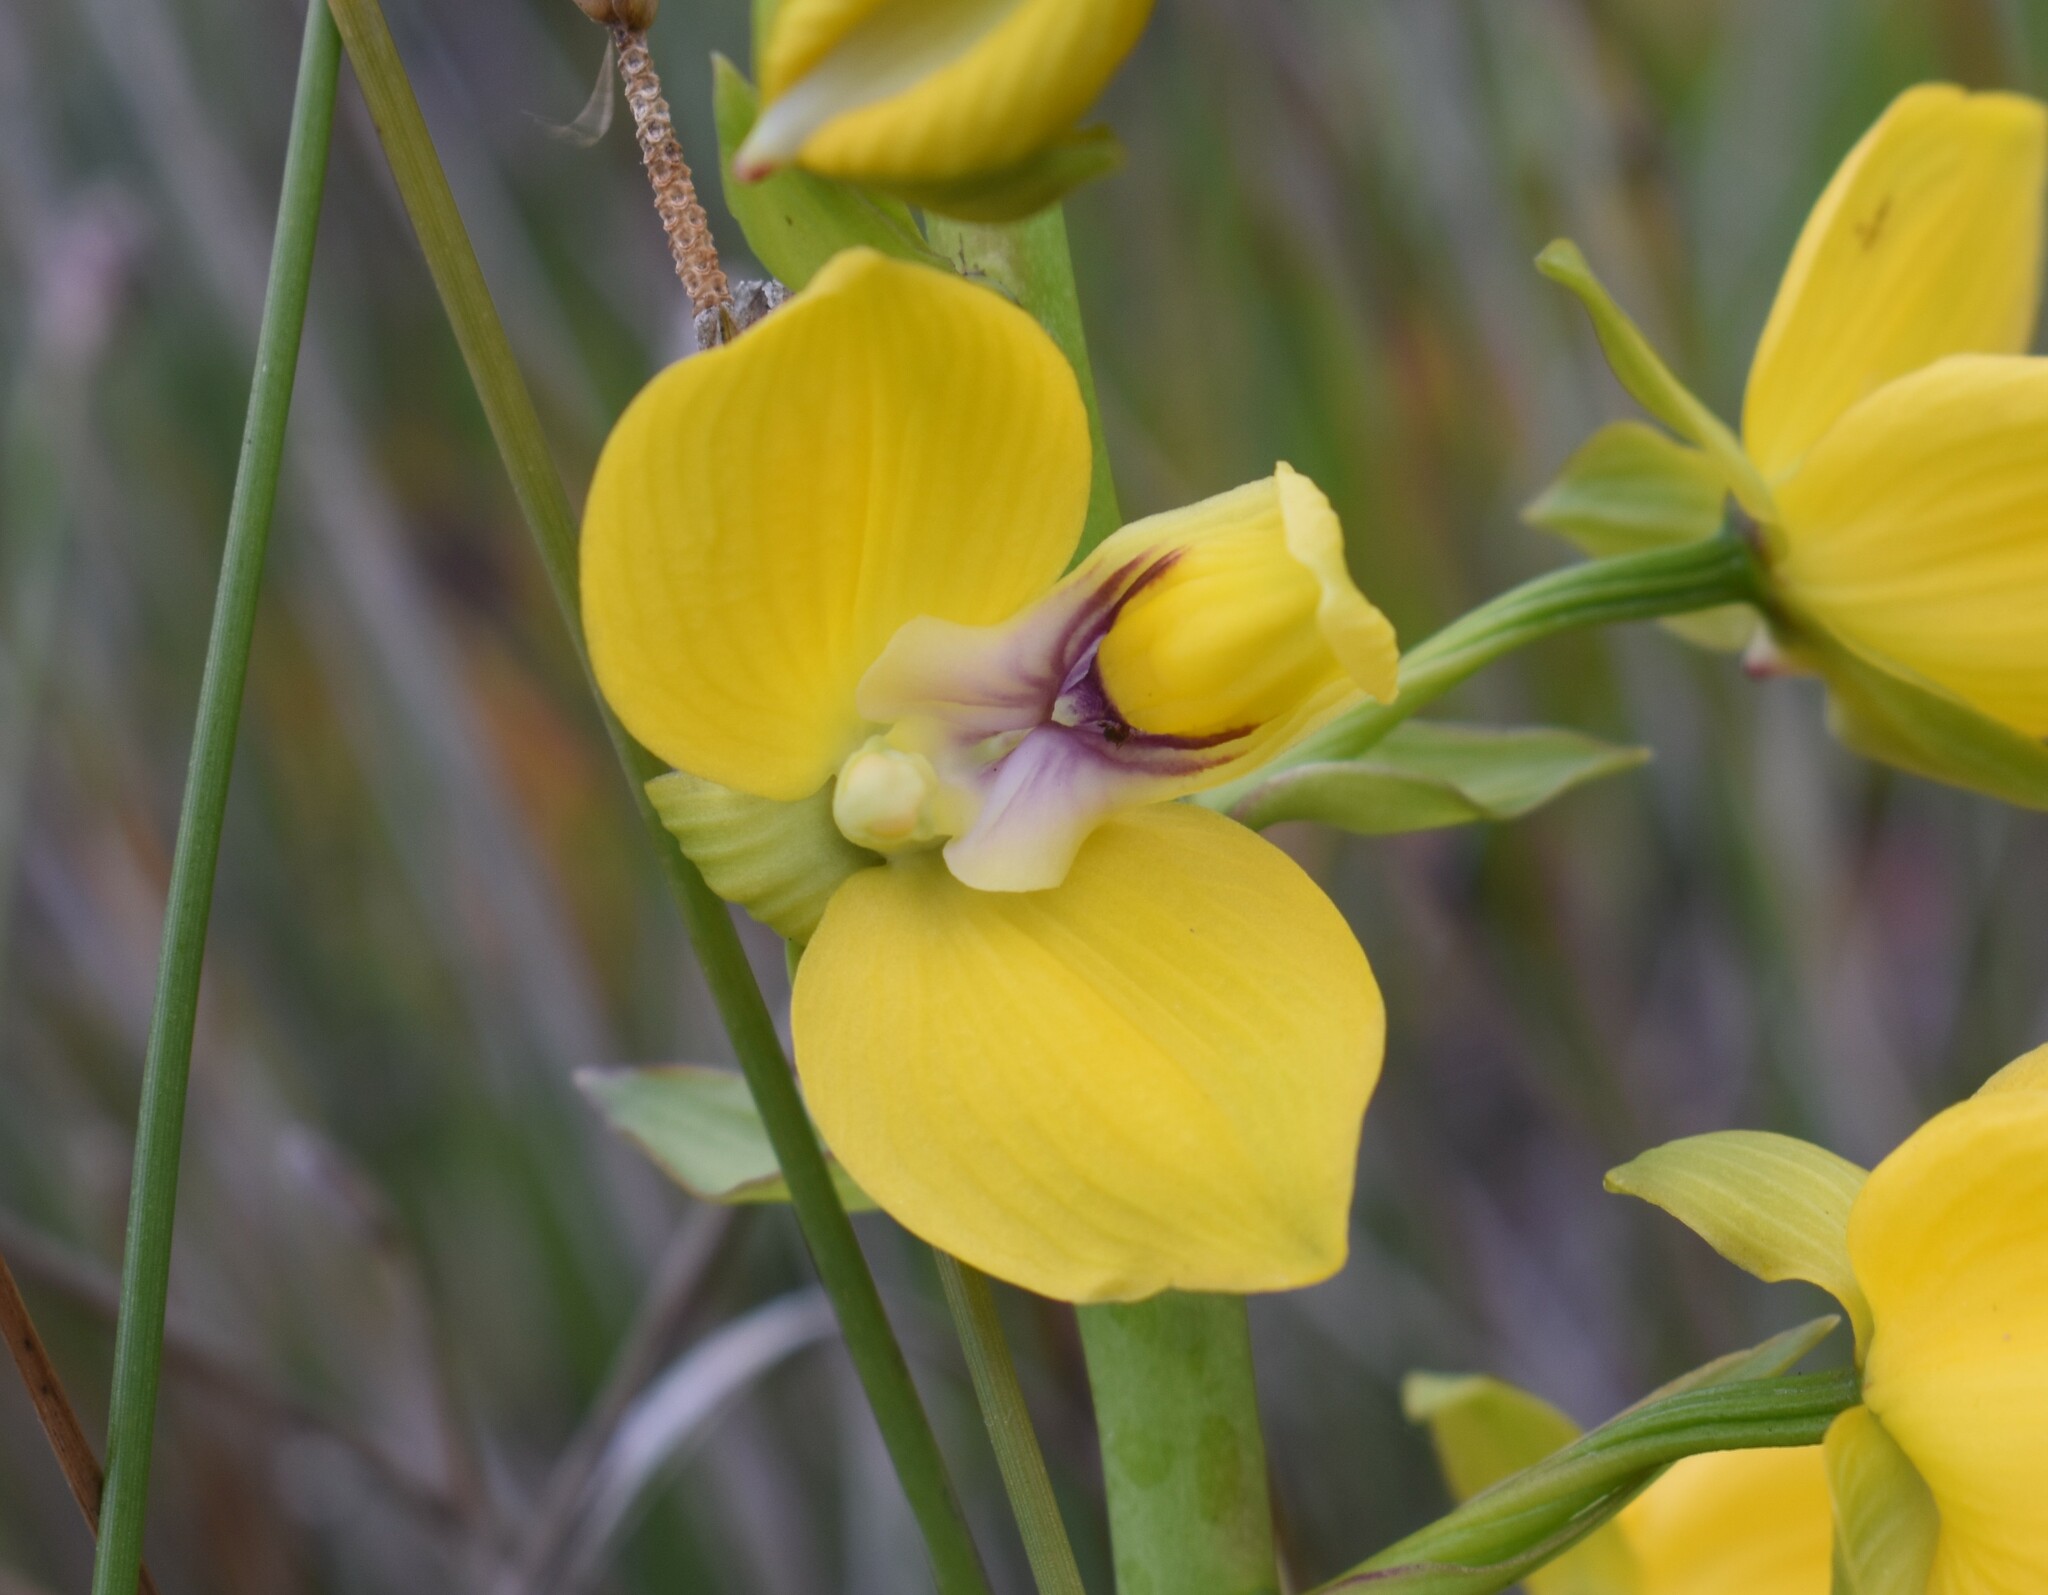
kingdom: Plantae
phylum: Tracheophyta
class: Liliopsida
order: Asparagales
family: Orchidaceae
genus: Eulophia
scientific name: Eulophia speciosa
